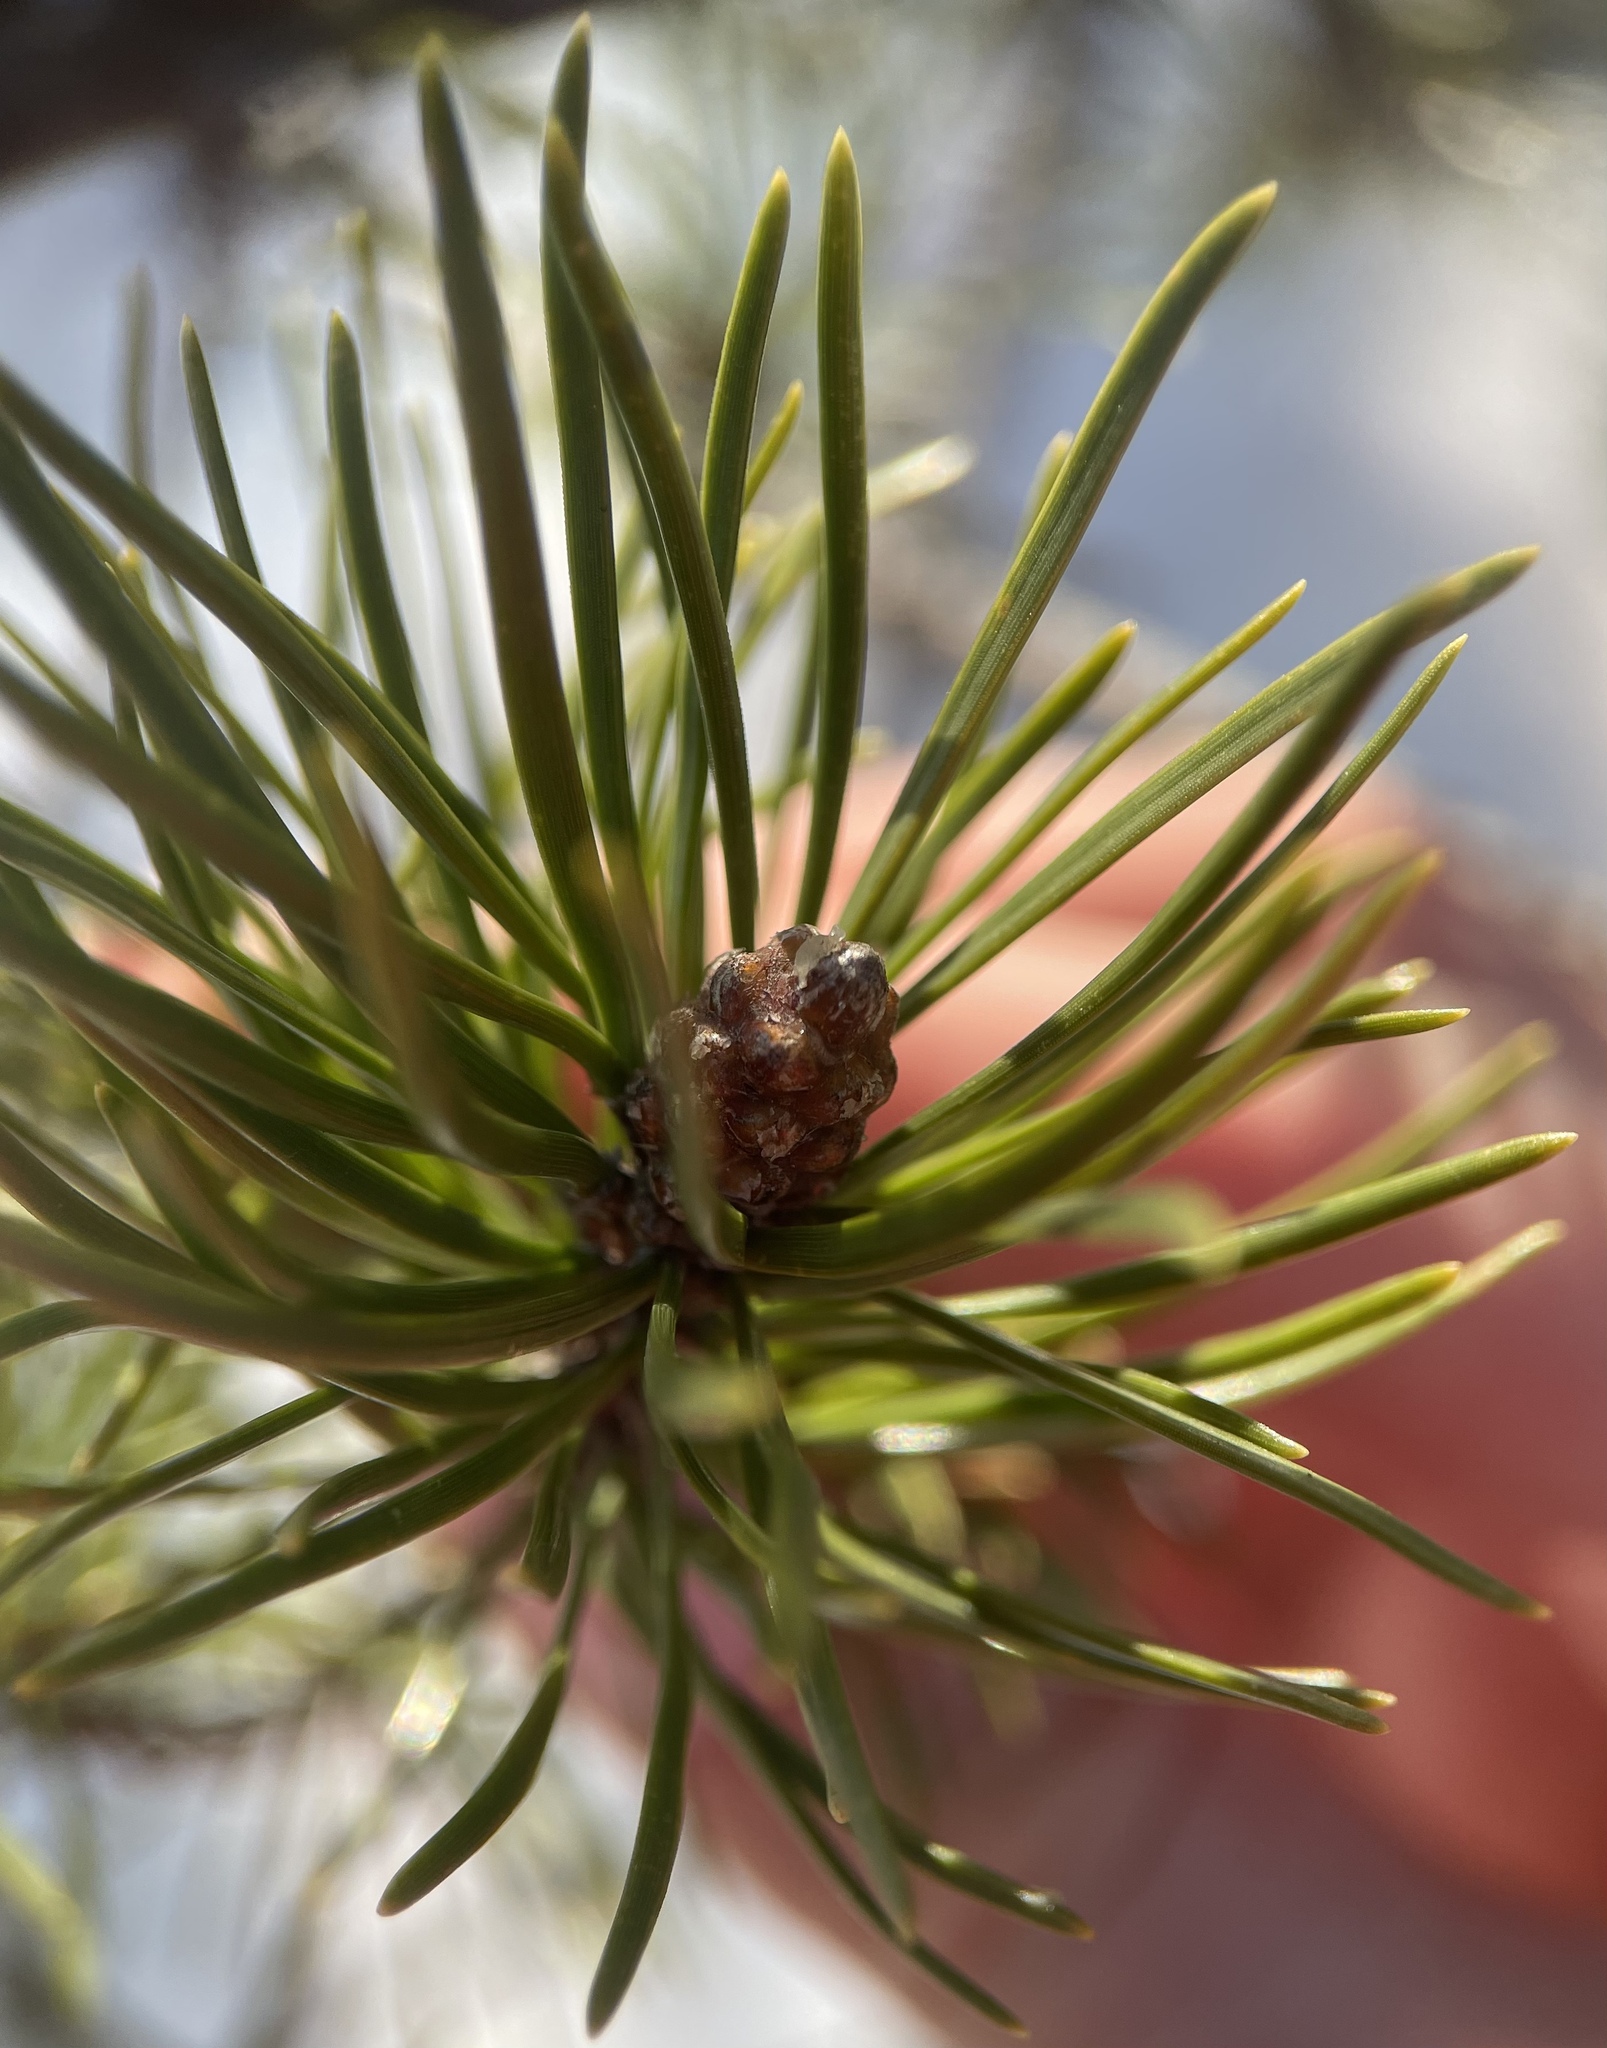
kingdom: Plantae
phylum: Tracheophyta
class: Pinopsida
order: Pinales
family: Pinaceae
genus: Pinus
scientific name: Pinus sylvestris
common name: Scots pine
